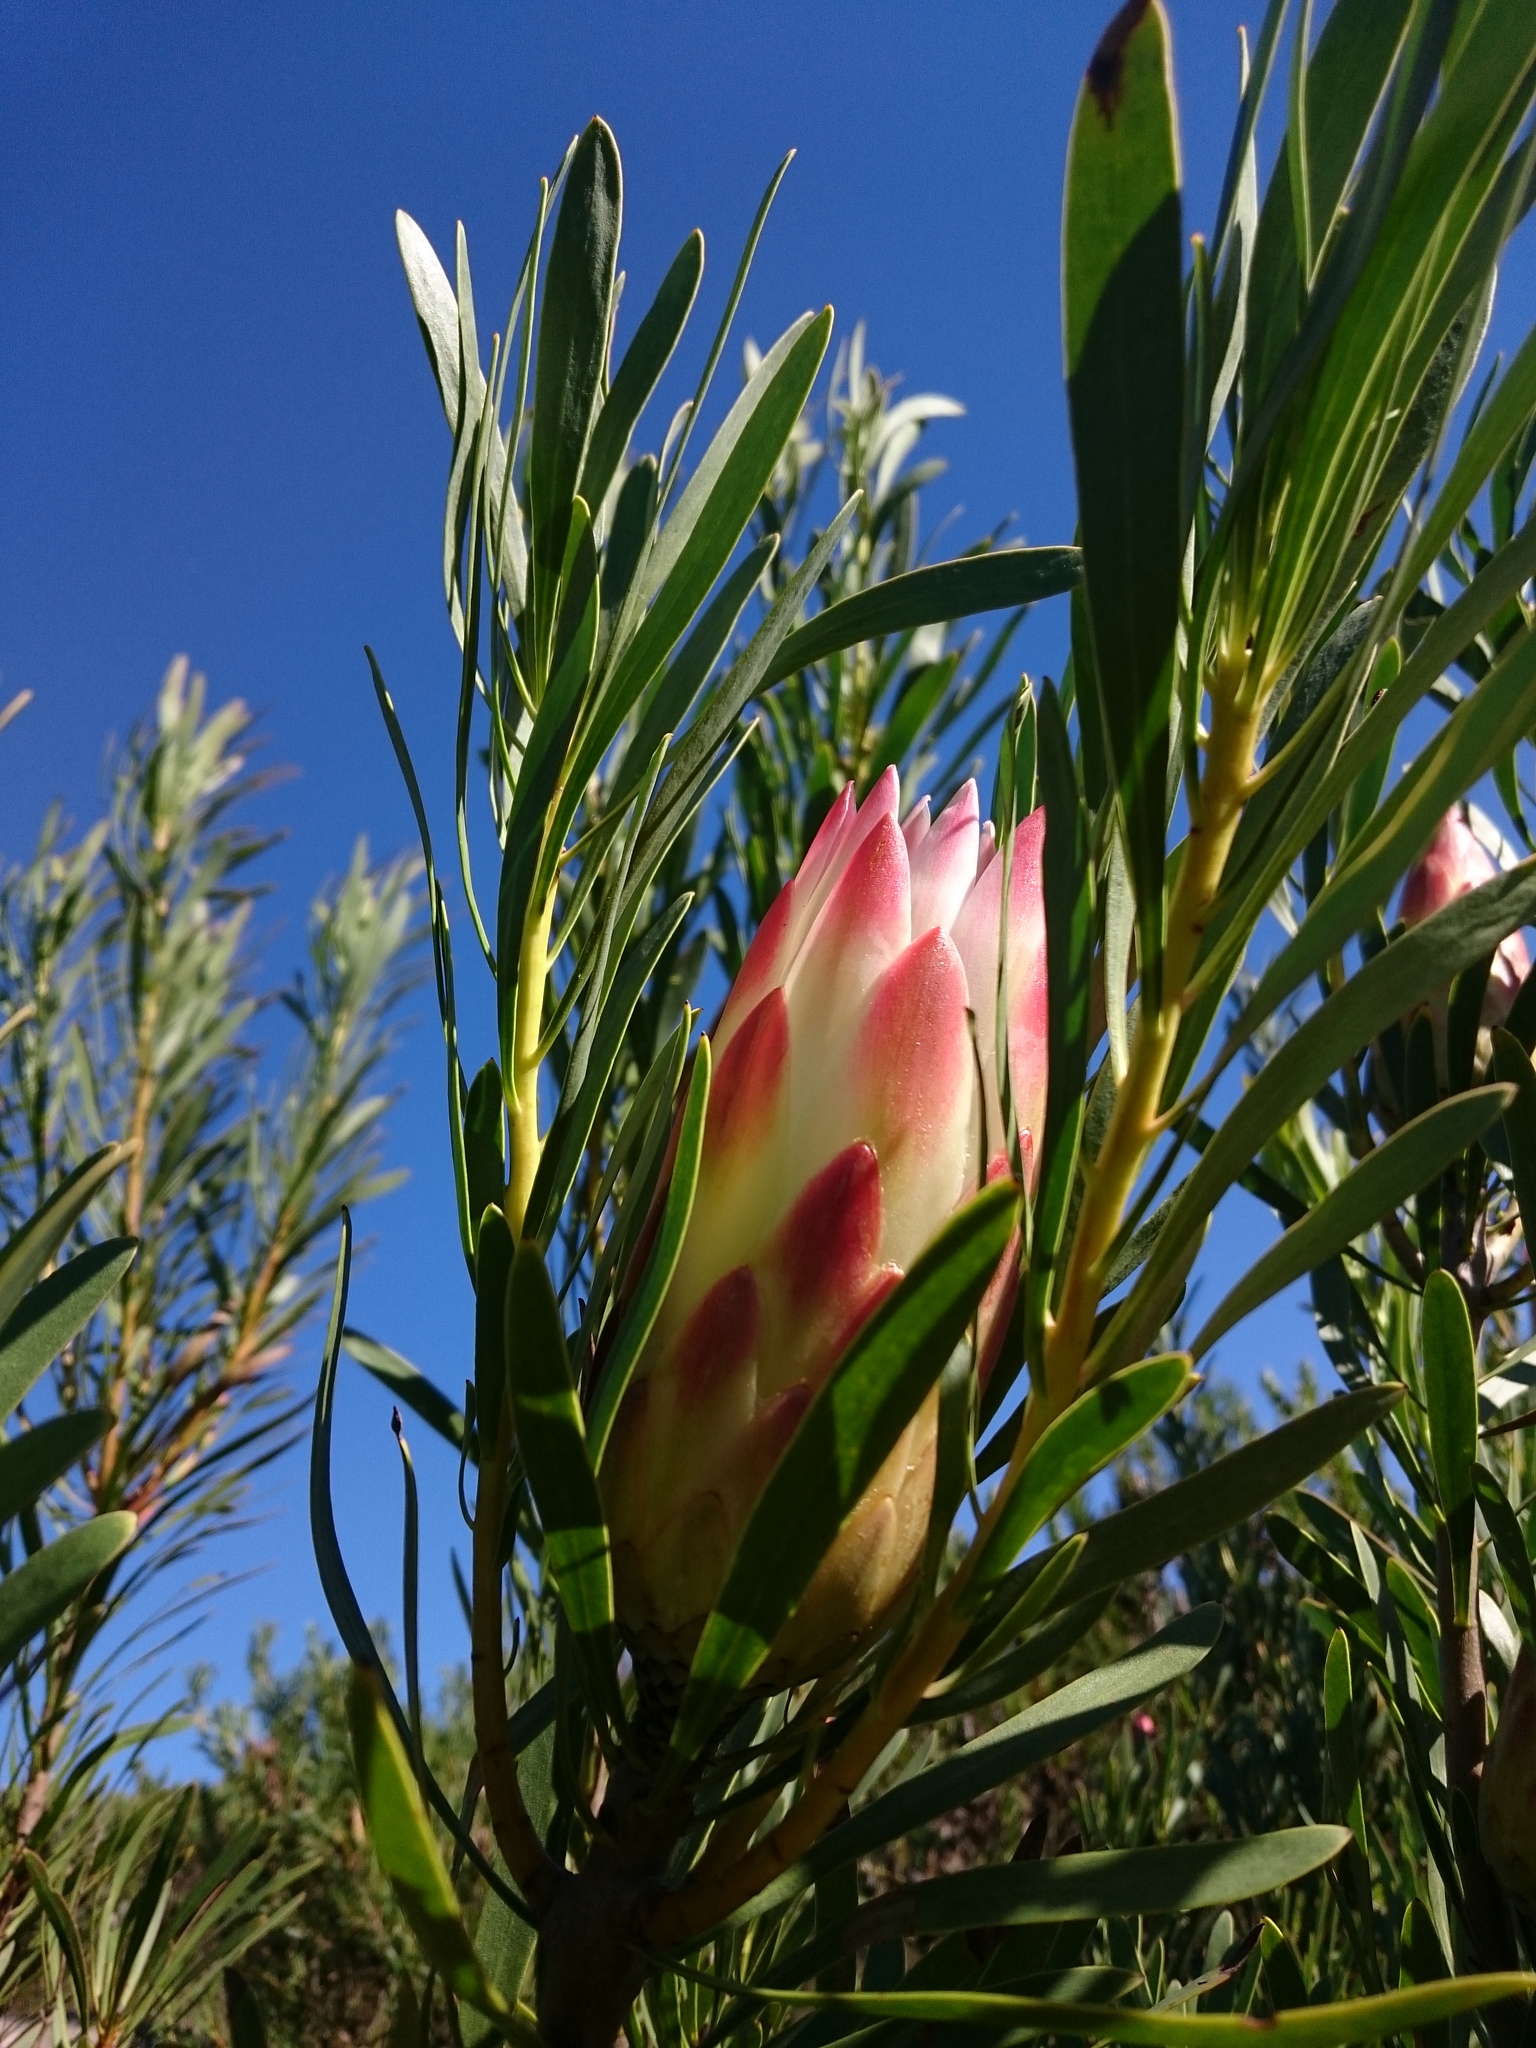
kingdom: Plantae
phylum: Tracheophyta
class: Magnoliopsida
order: Proteales
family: Proteaceae
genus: Protea
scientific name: Protea repens
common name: Sugarbush
